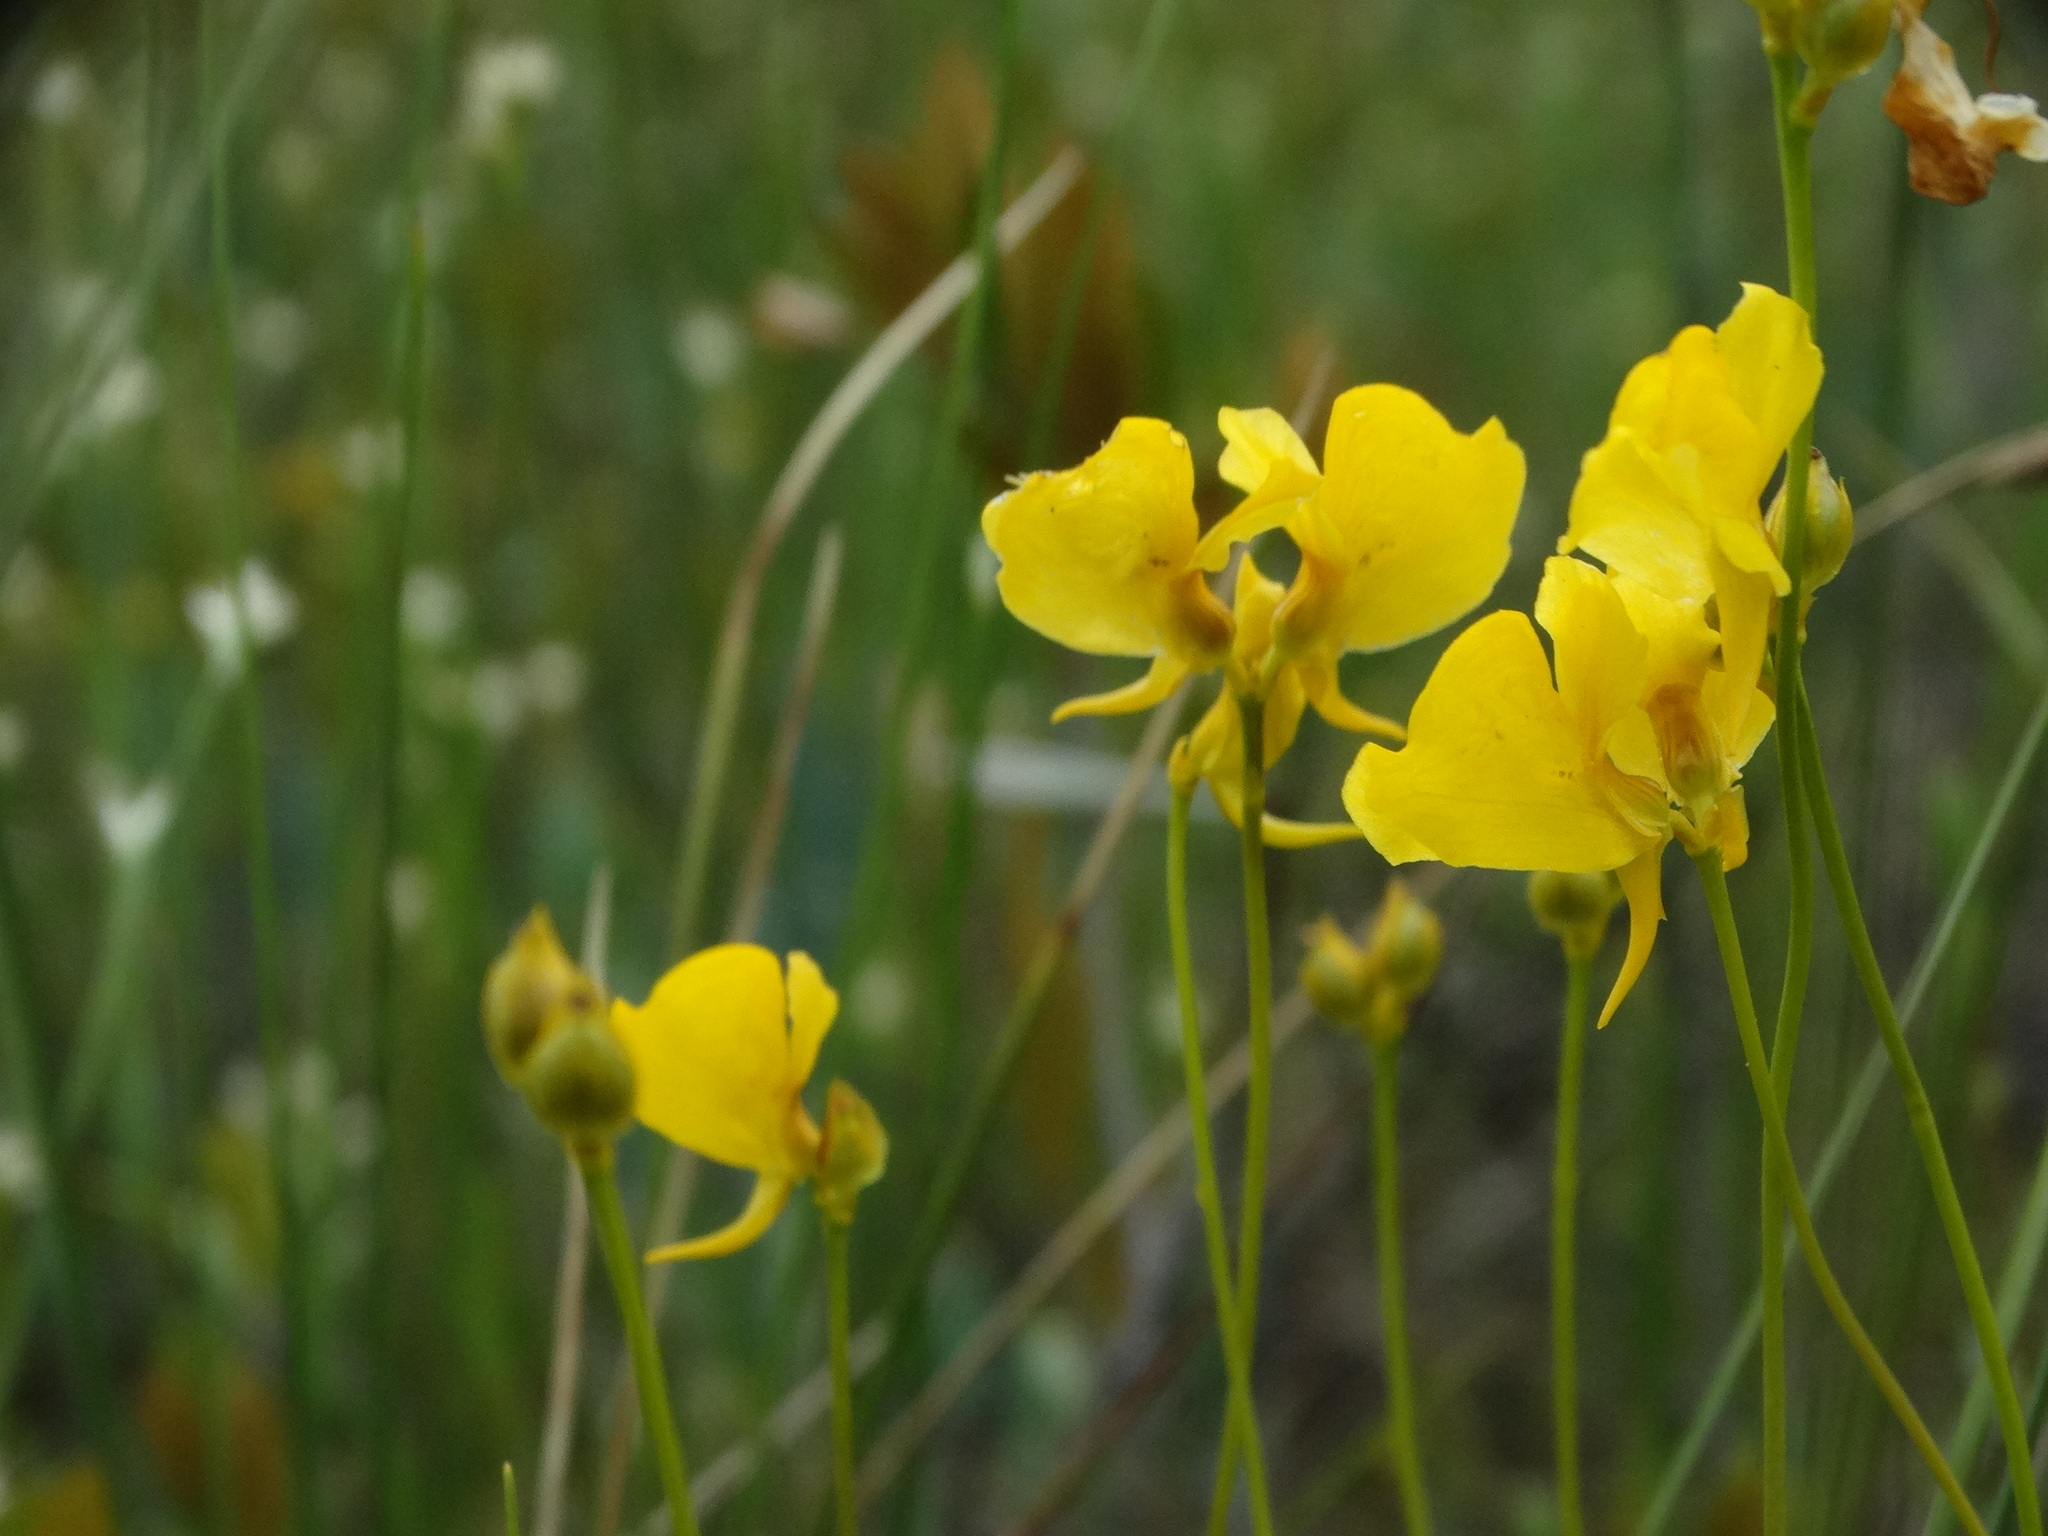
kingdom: Plantae
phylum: Tracheophyta
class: Magnoliopsida
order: Lamiales
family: Lentibulariaceae
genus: Utricularia
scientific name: Utricularia cornuta
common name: Horned bladderwort
